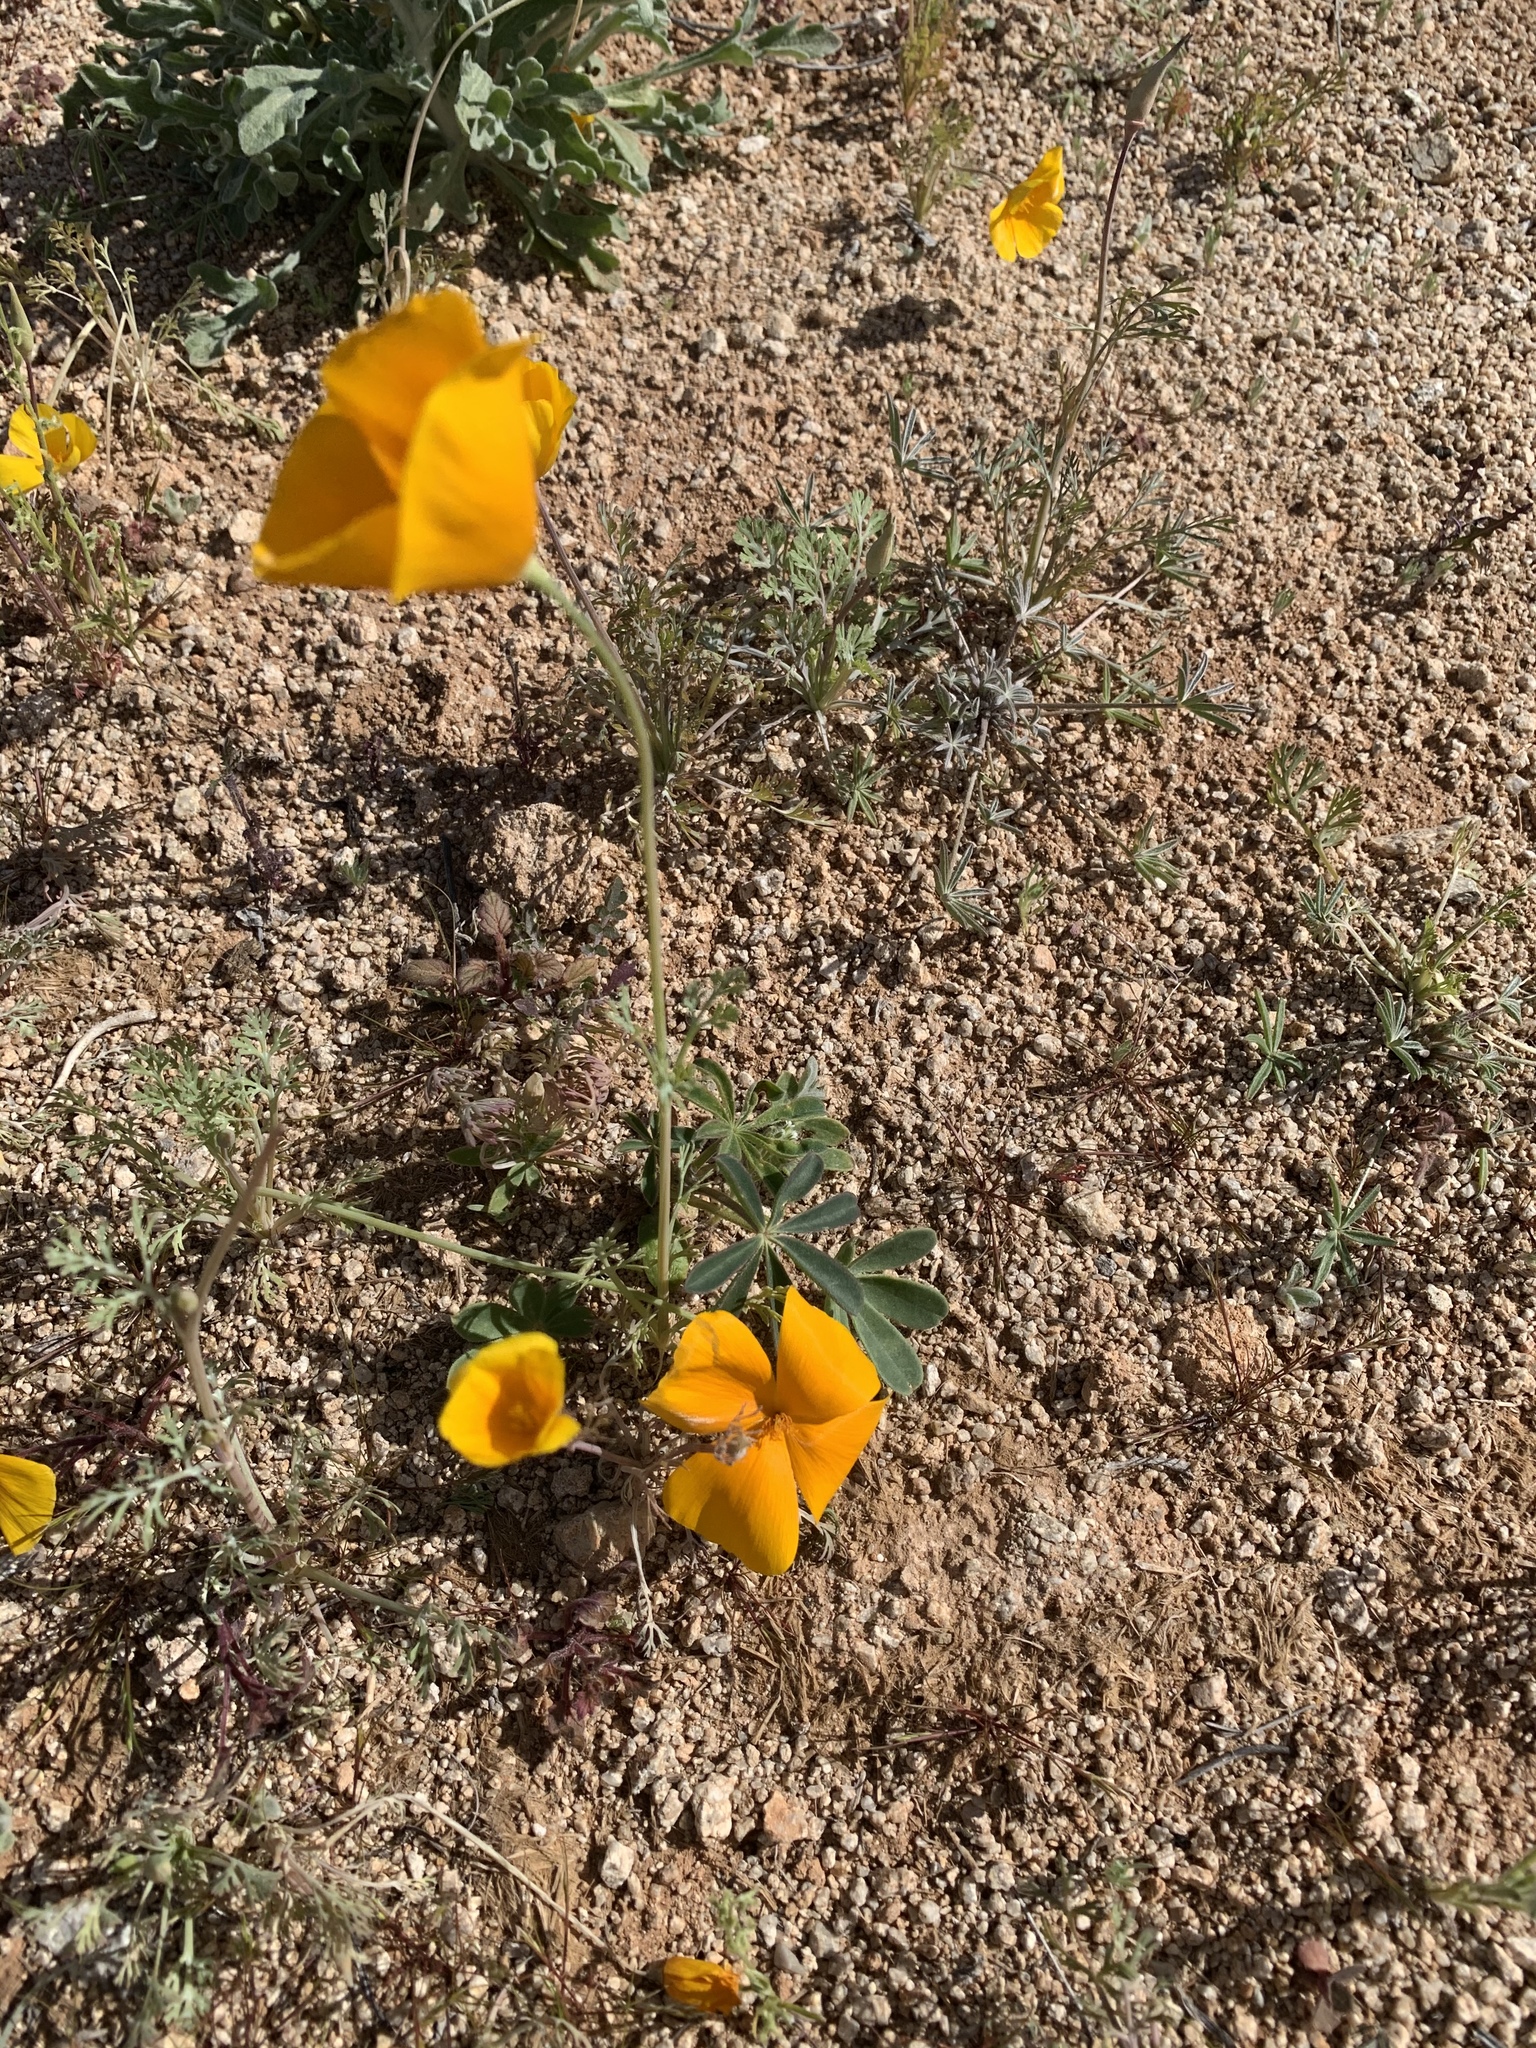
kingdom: Plantae
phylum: Tracheophyta
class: Magnoliopsida
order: Ranunculales
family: Papaveraceae
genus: Eschscholzia
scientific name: Eschscholzia californica
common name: California poppy
